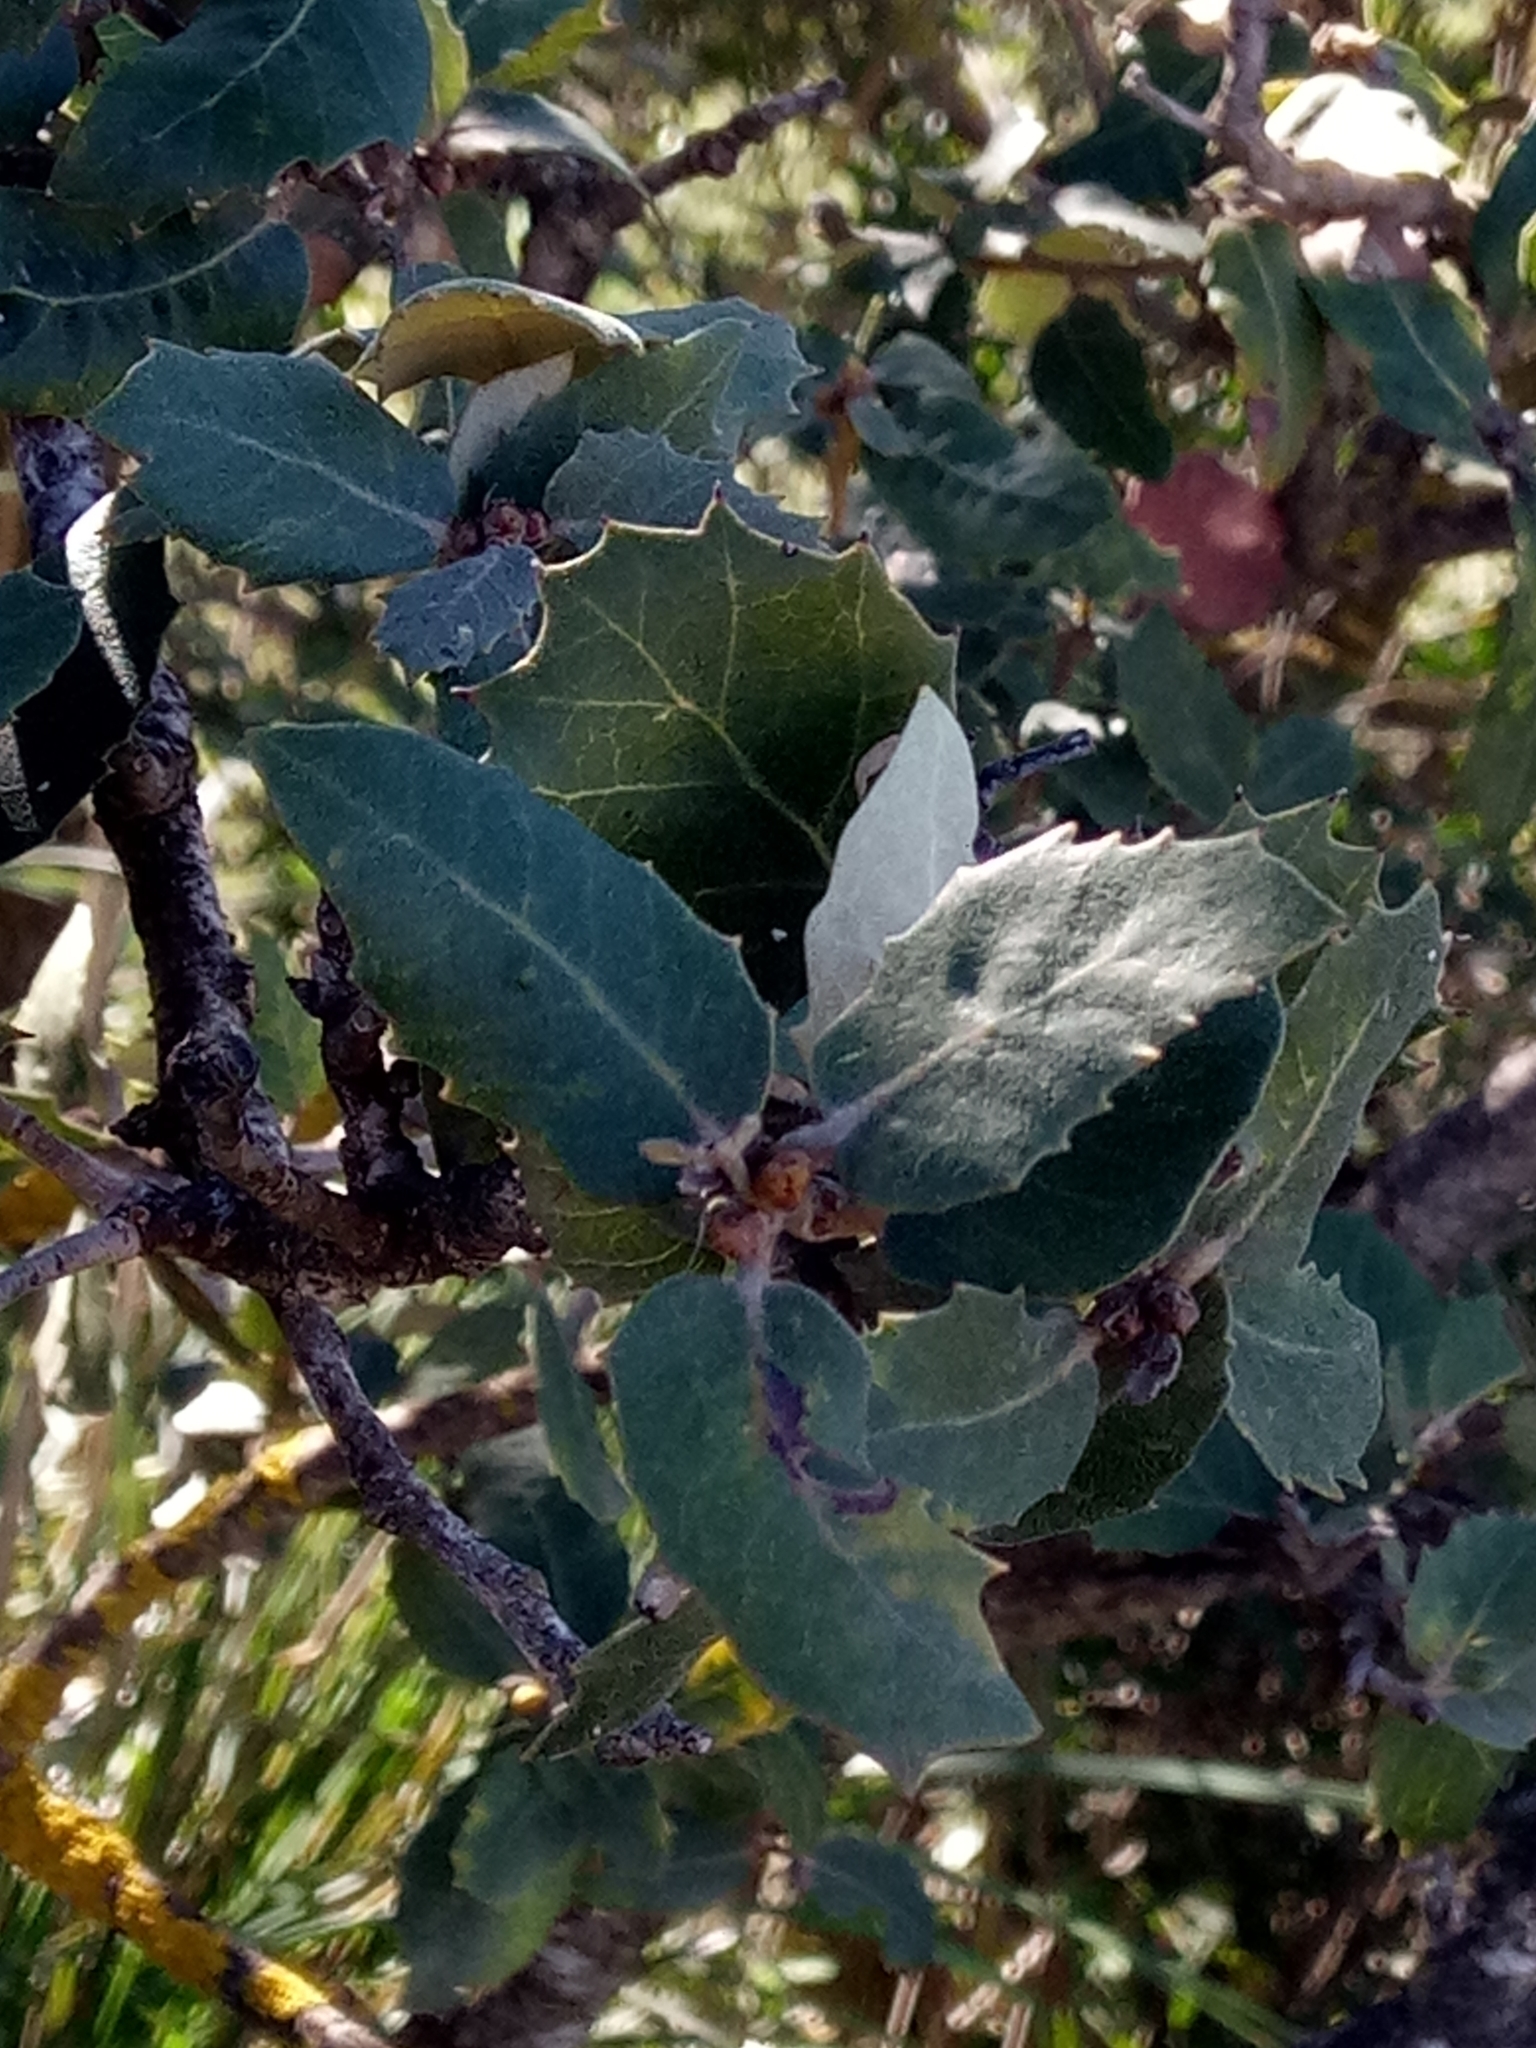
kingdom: Plantae
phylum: Tracheophyta
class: Magnoliopsida
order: Fagales
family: Fagaceae
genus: Quercus
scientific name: Quercus rotundifolia
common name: Holm oak
